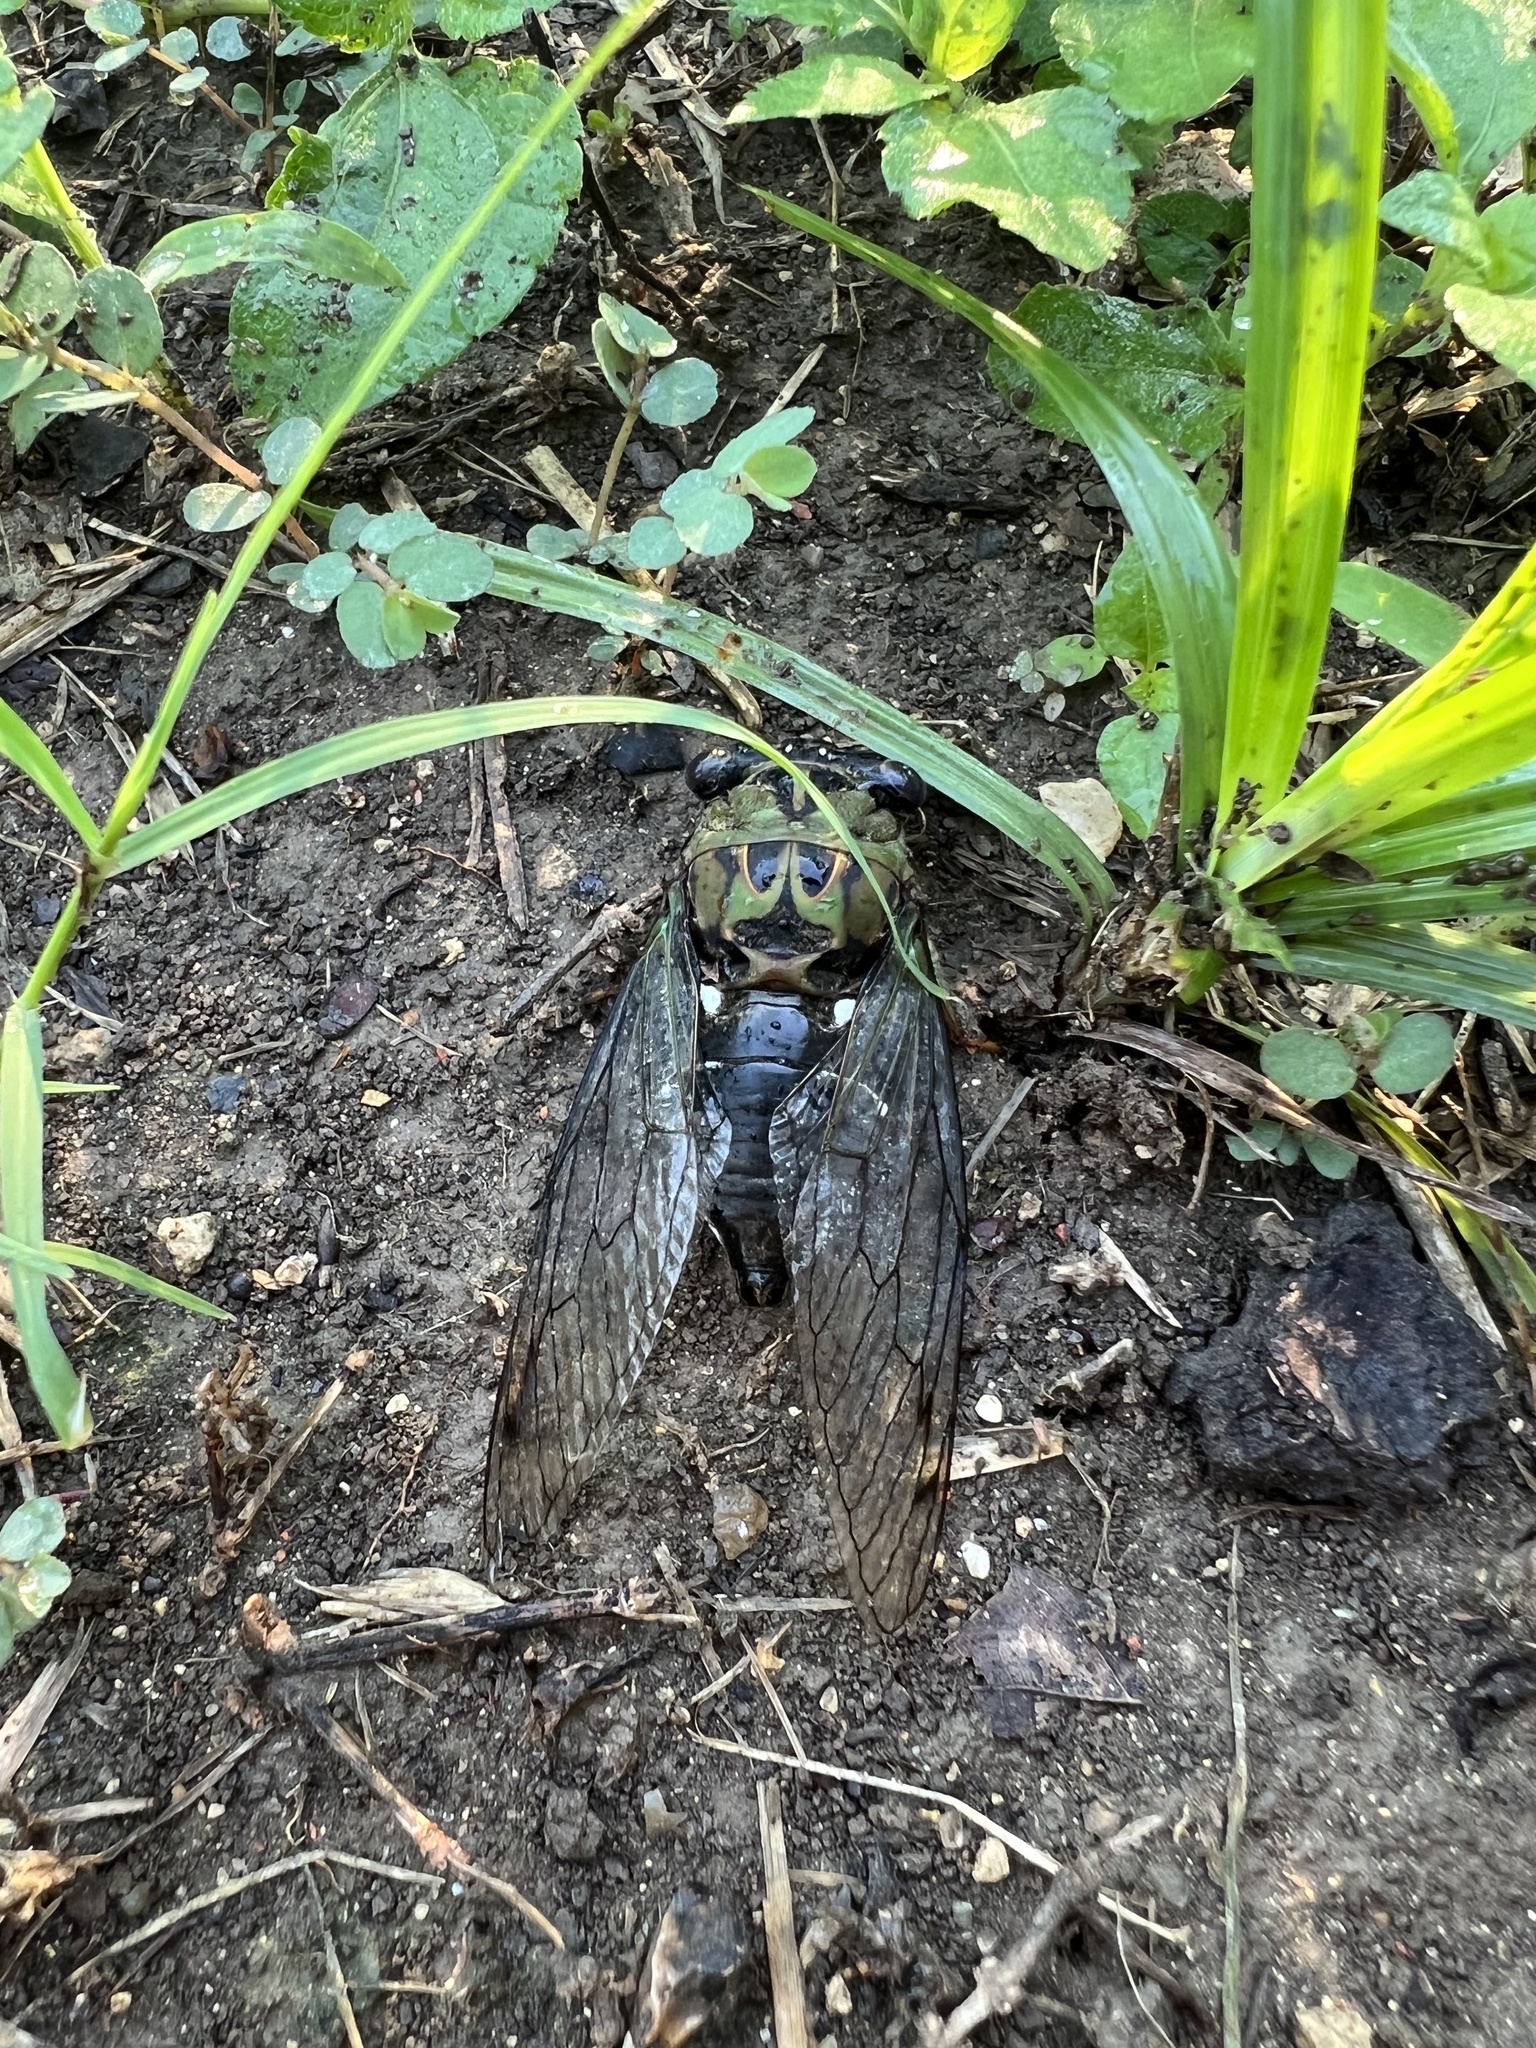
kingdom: Animalia
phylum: Arthropoda
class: Insecta
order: Hemiptera
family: Cicadidae
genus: Neotibicen
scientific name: Neotibicen pruinosus
